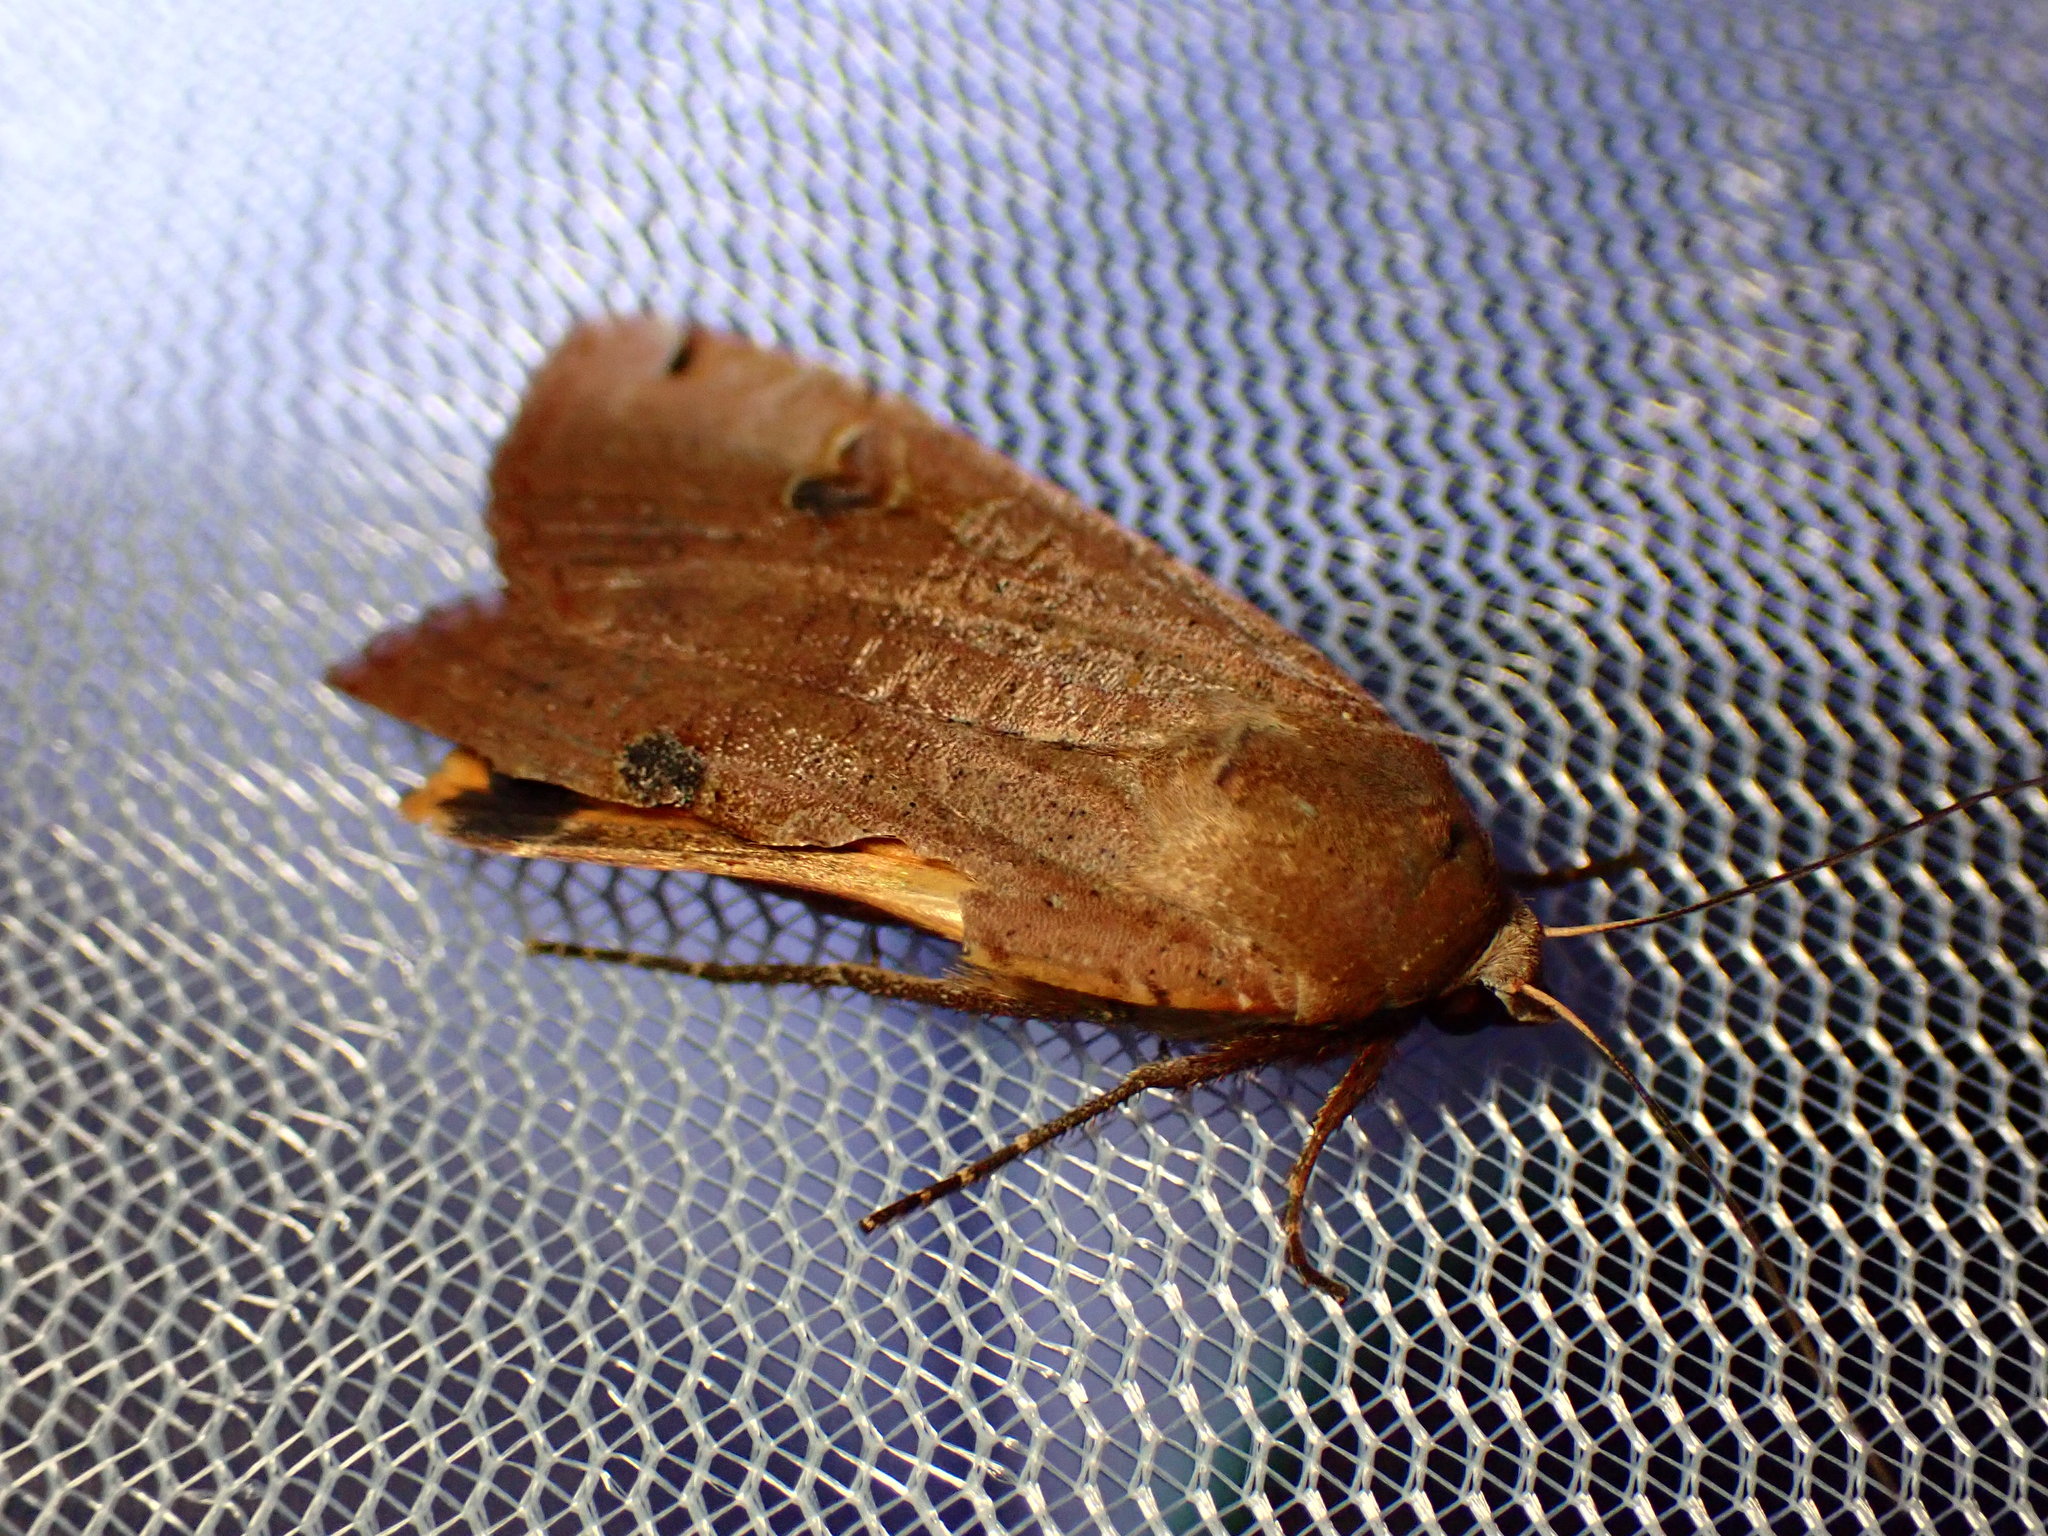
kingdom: Animalia
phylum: Arthropoda
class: Insecta
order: Lepidoptera
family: Noctuidae
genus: Noctua
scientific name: Noctua pronuba
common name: Large yellow underwing
